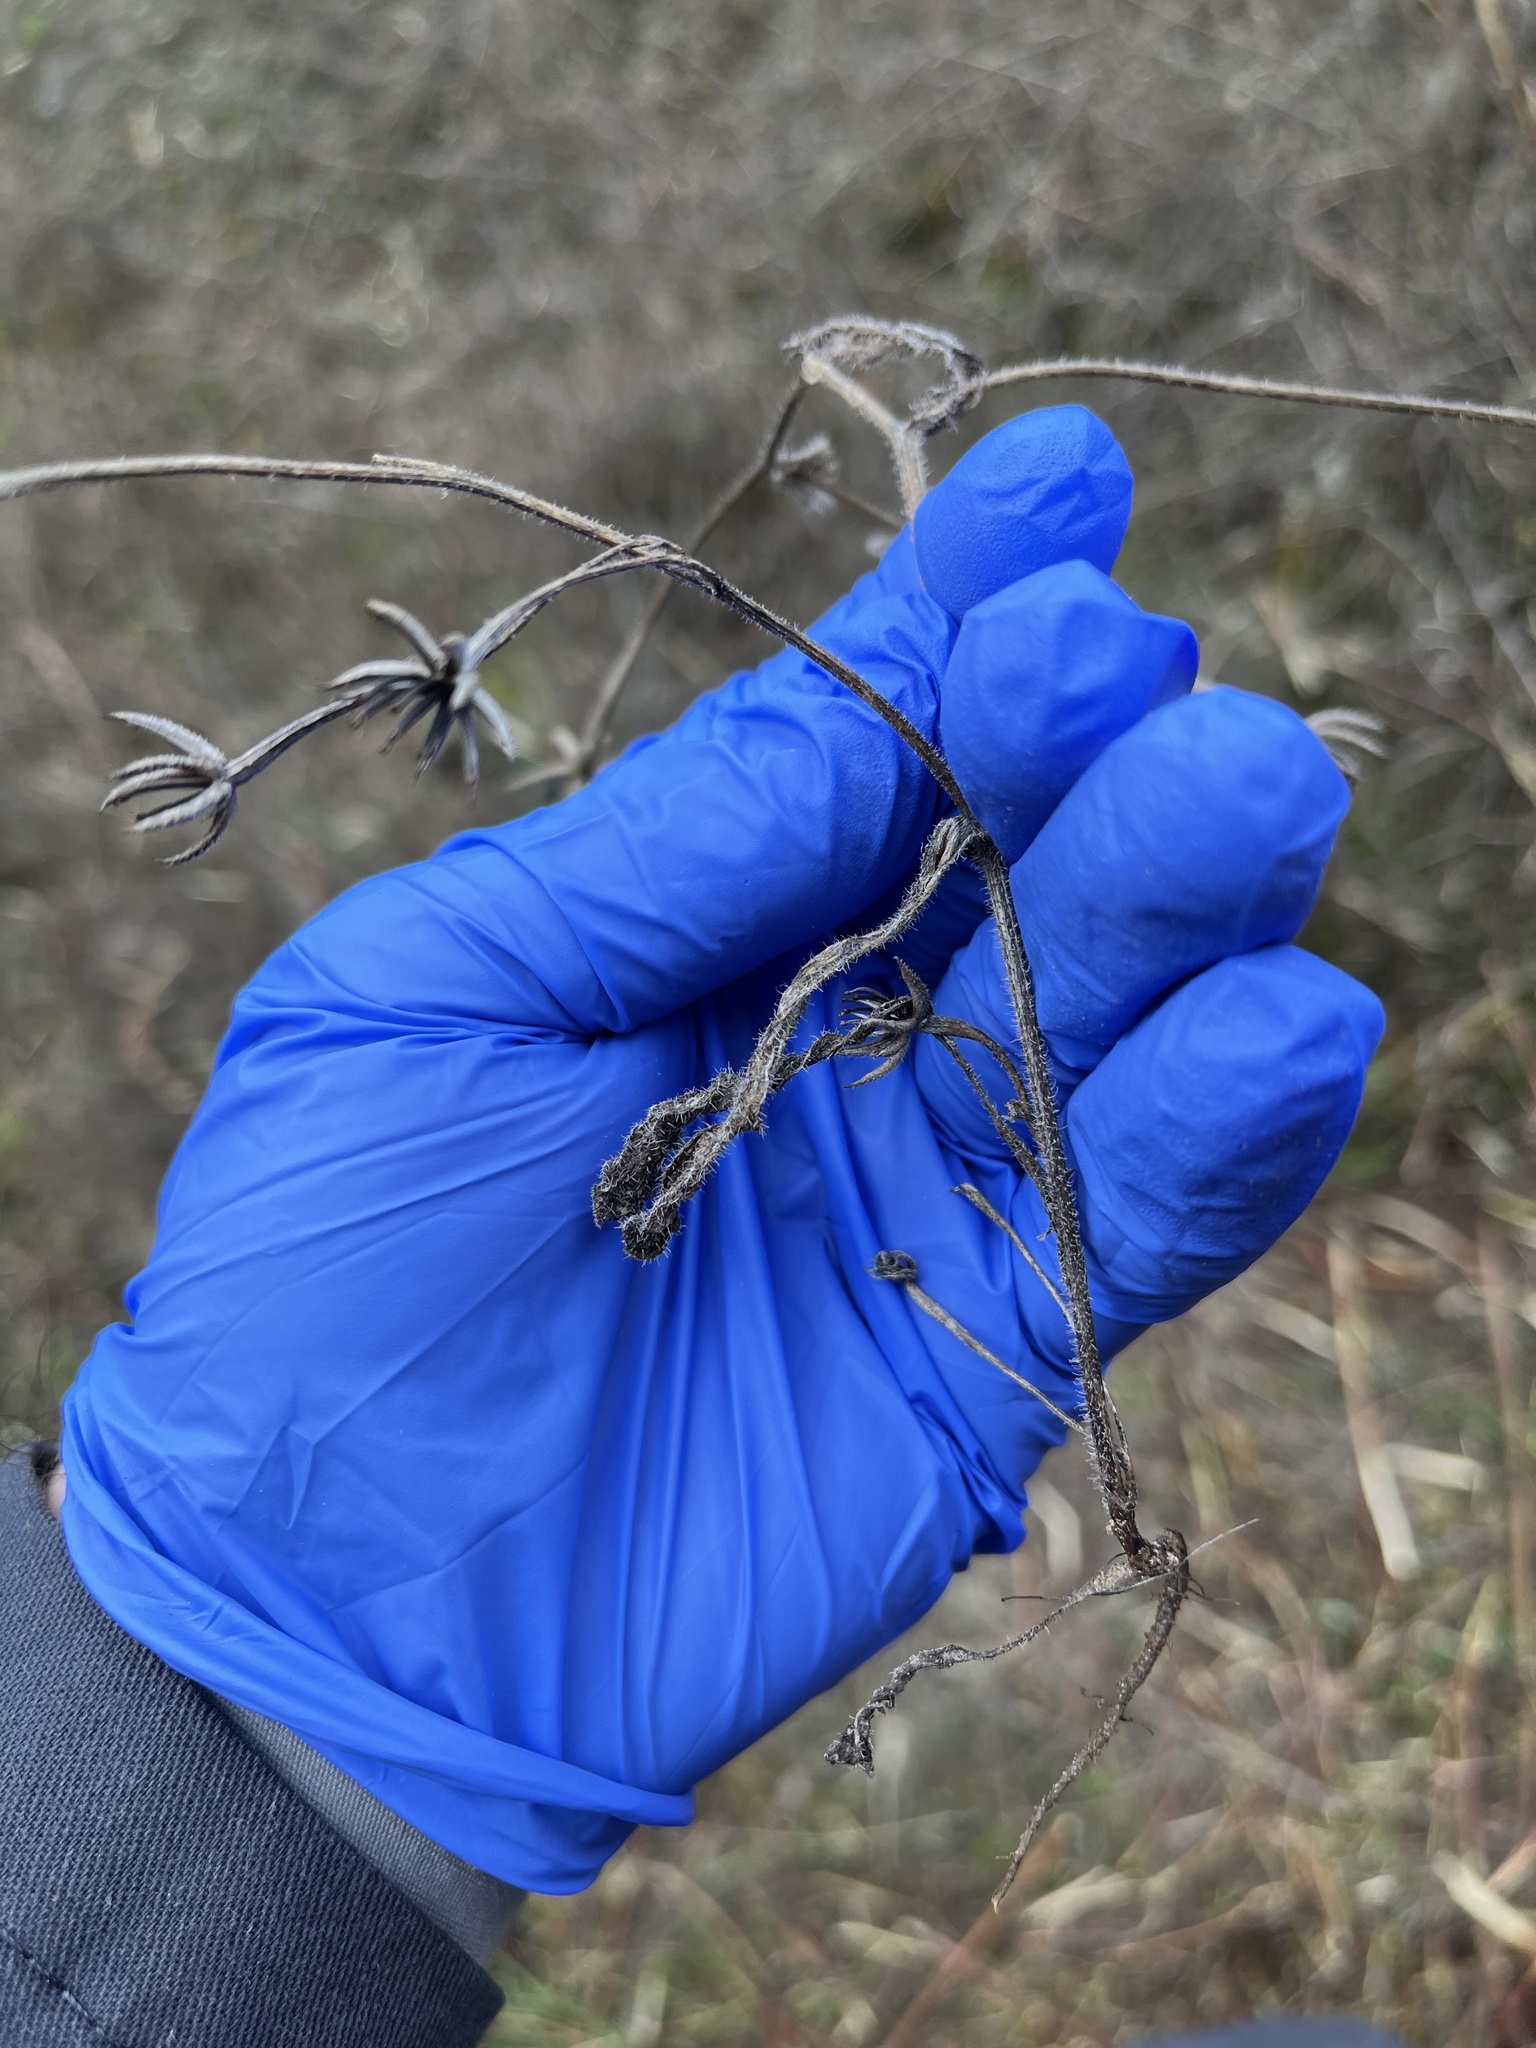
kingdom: Plantae
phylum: Tracheophyta
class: Magnoliopsida
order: Asterales
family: Asteraceae
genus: Hedypnois
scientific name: Hedypnois rhagadioloides
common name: Cretan weed
